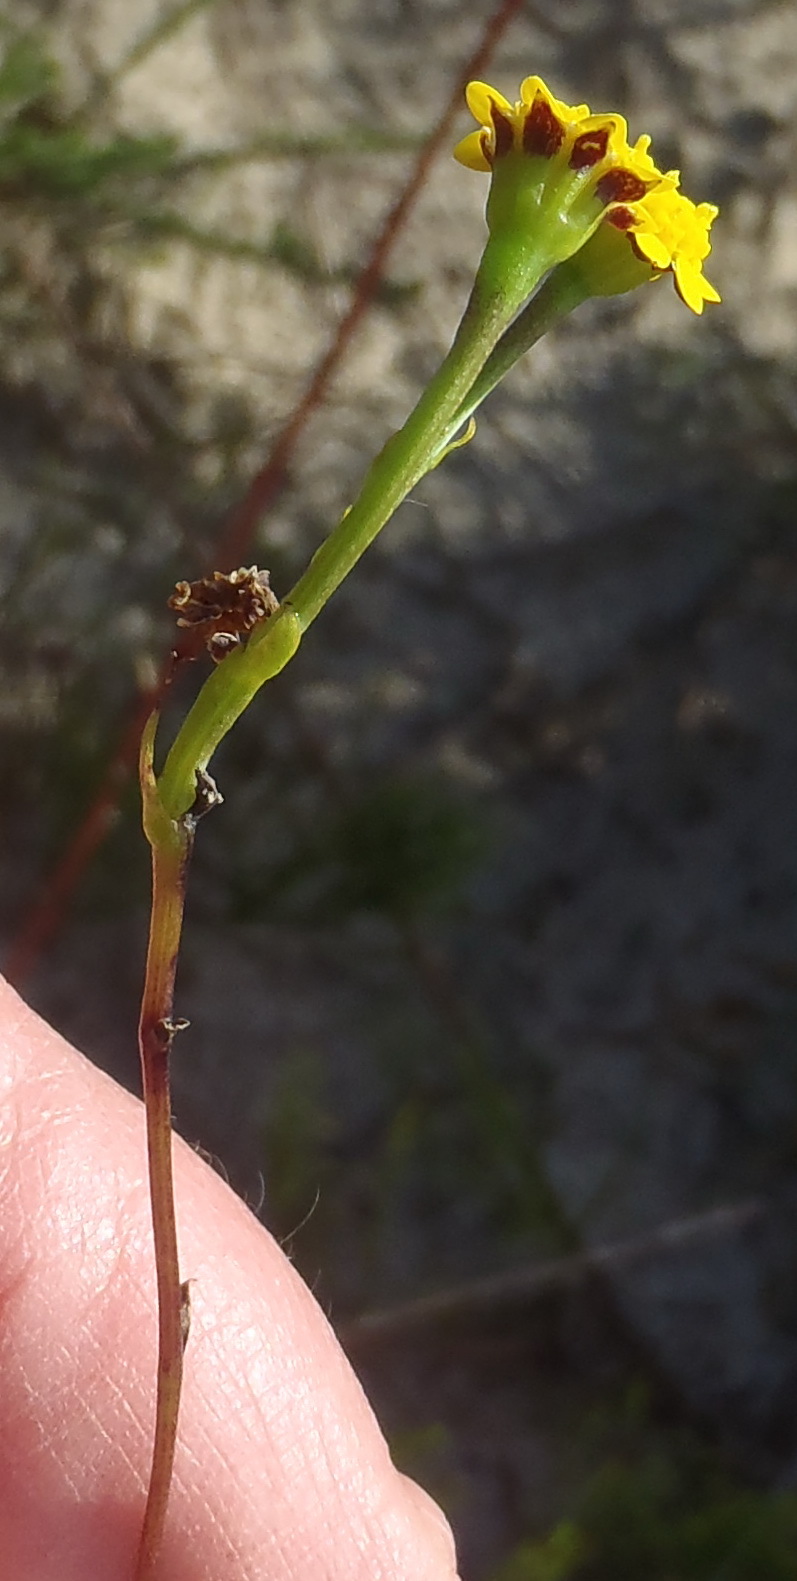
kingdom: Plantae
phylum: Tracheophyta
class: Magnoliopsida
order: Asterales
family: Asteraceae
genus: Othonna
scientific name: Othonna quinquedentata
